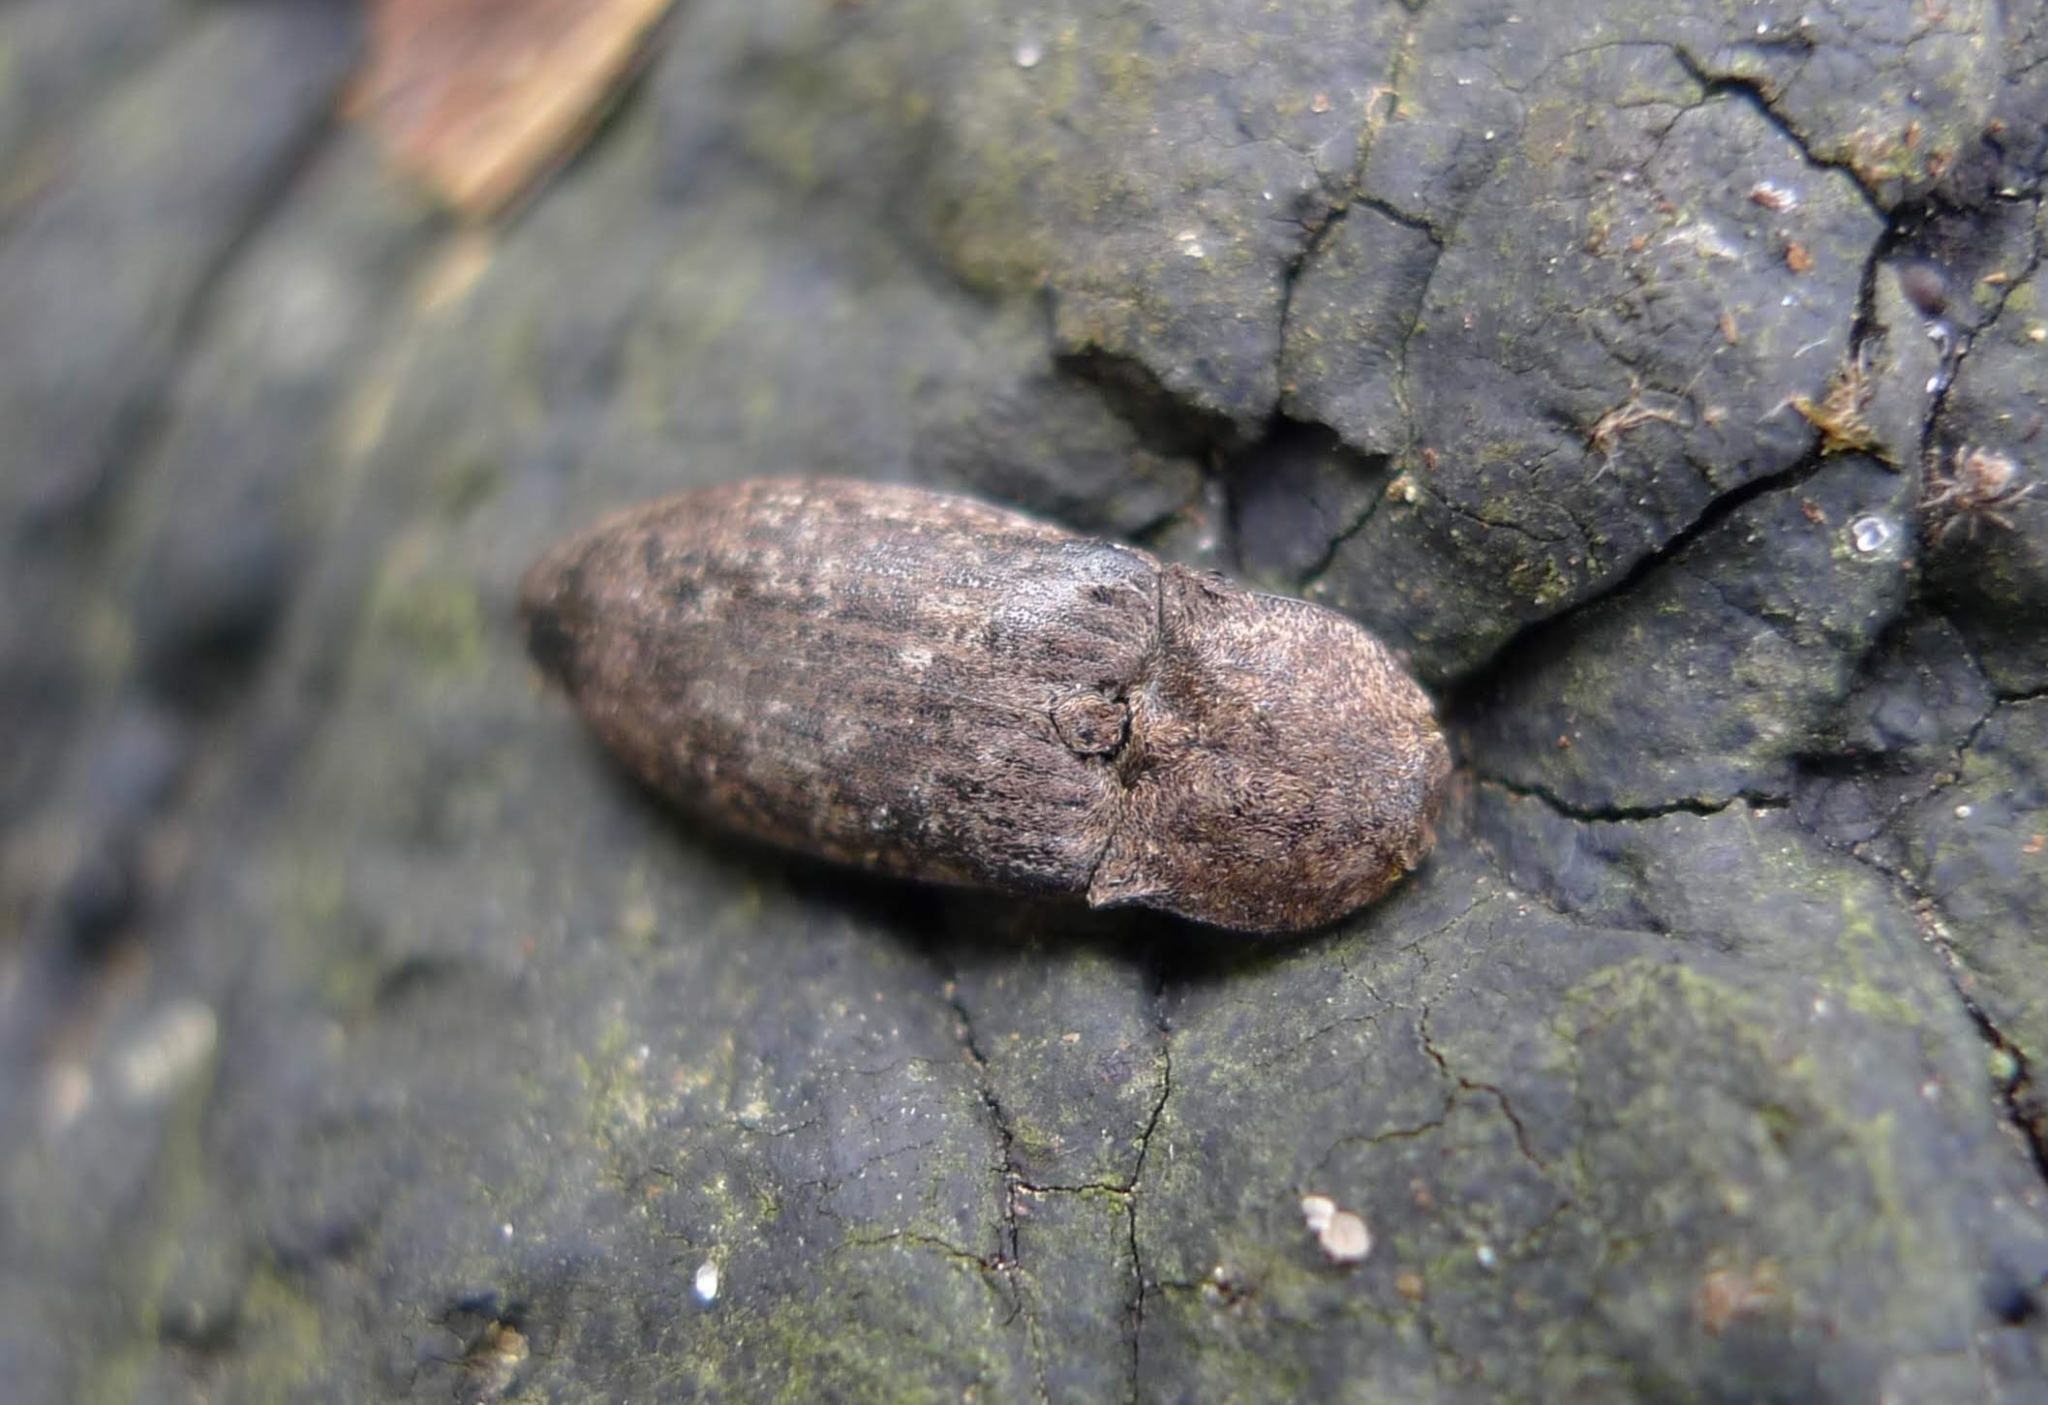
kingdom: Animalia
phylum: Arthropoda
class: Insecta
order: Coleoptera
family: Elateridae
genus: Agrypnus
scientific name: Agrypnus murinus
